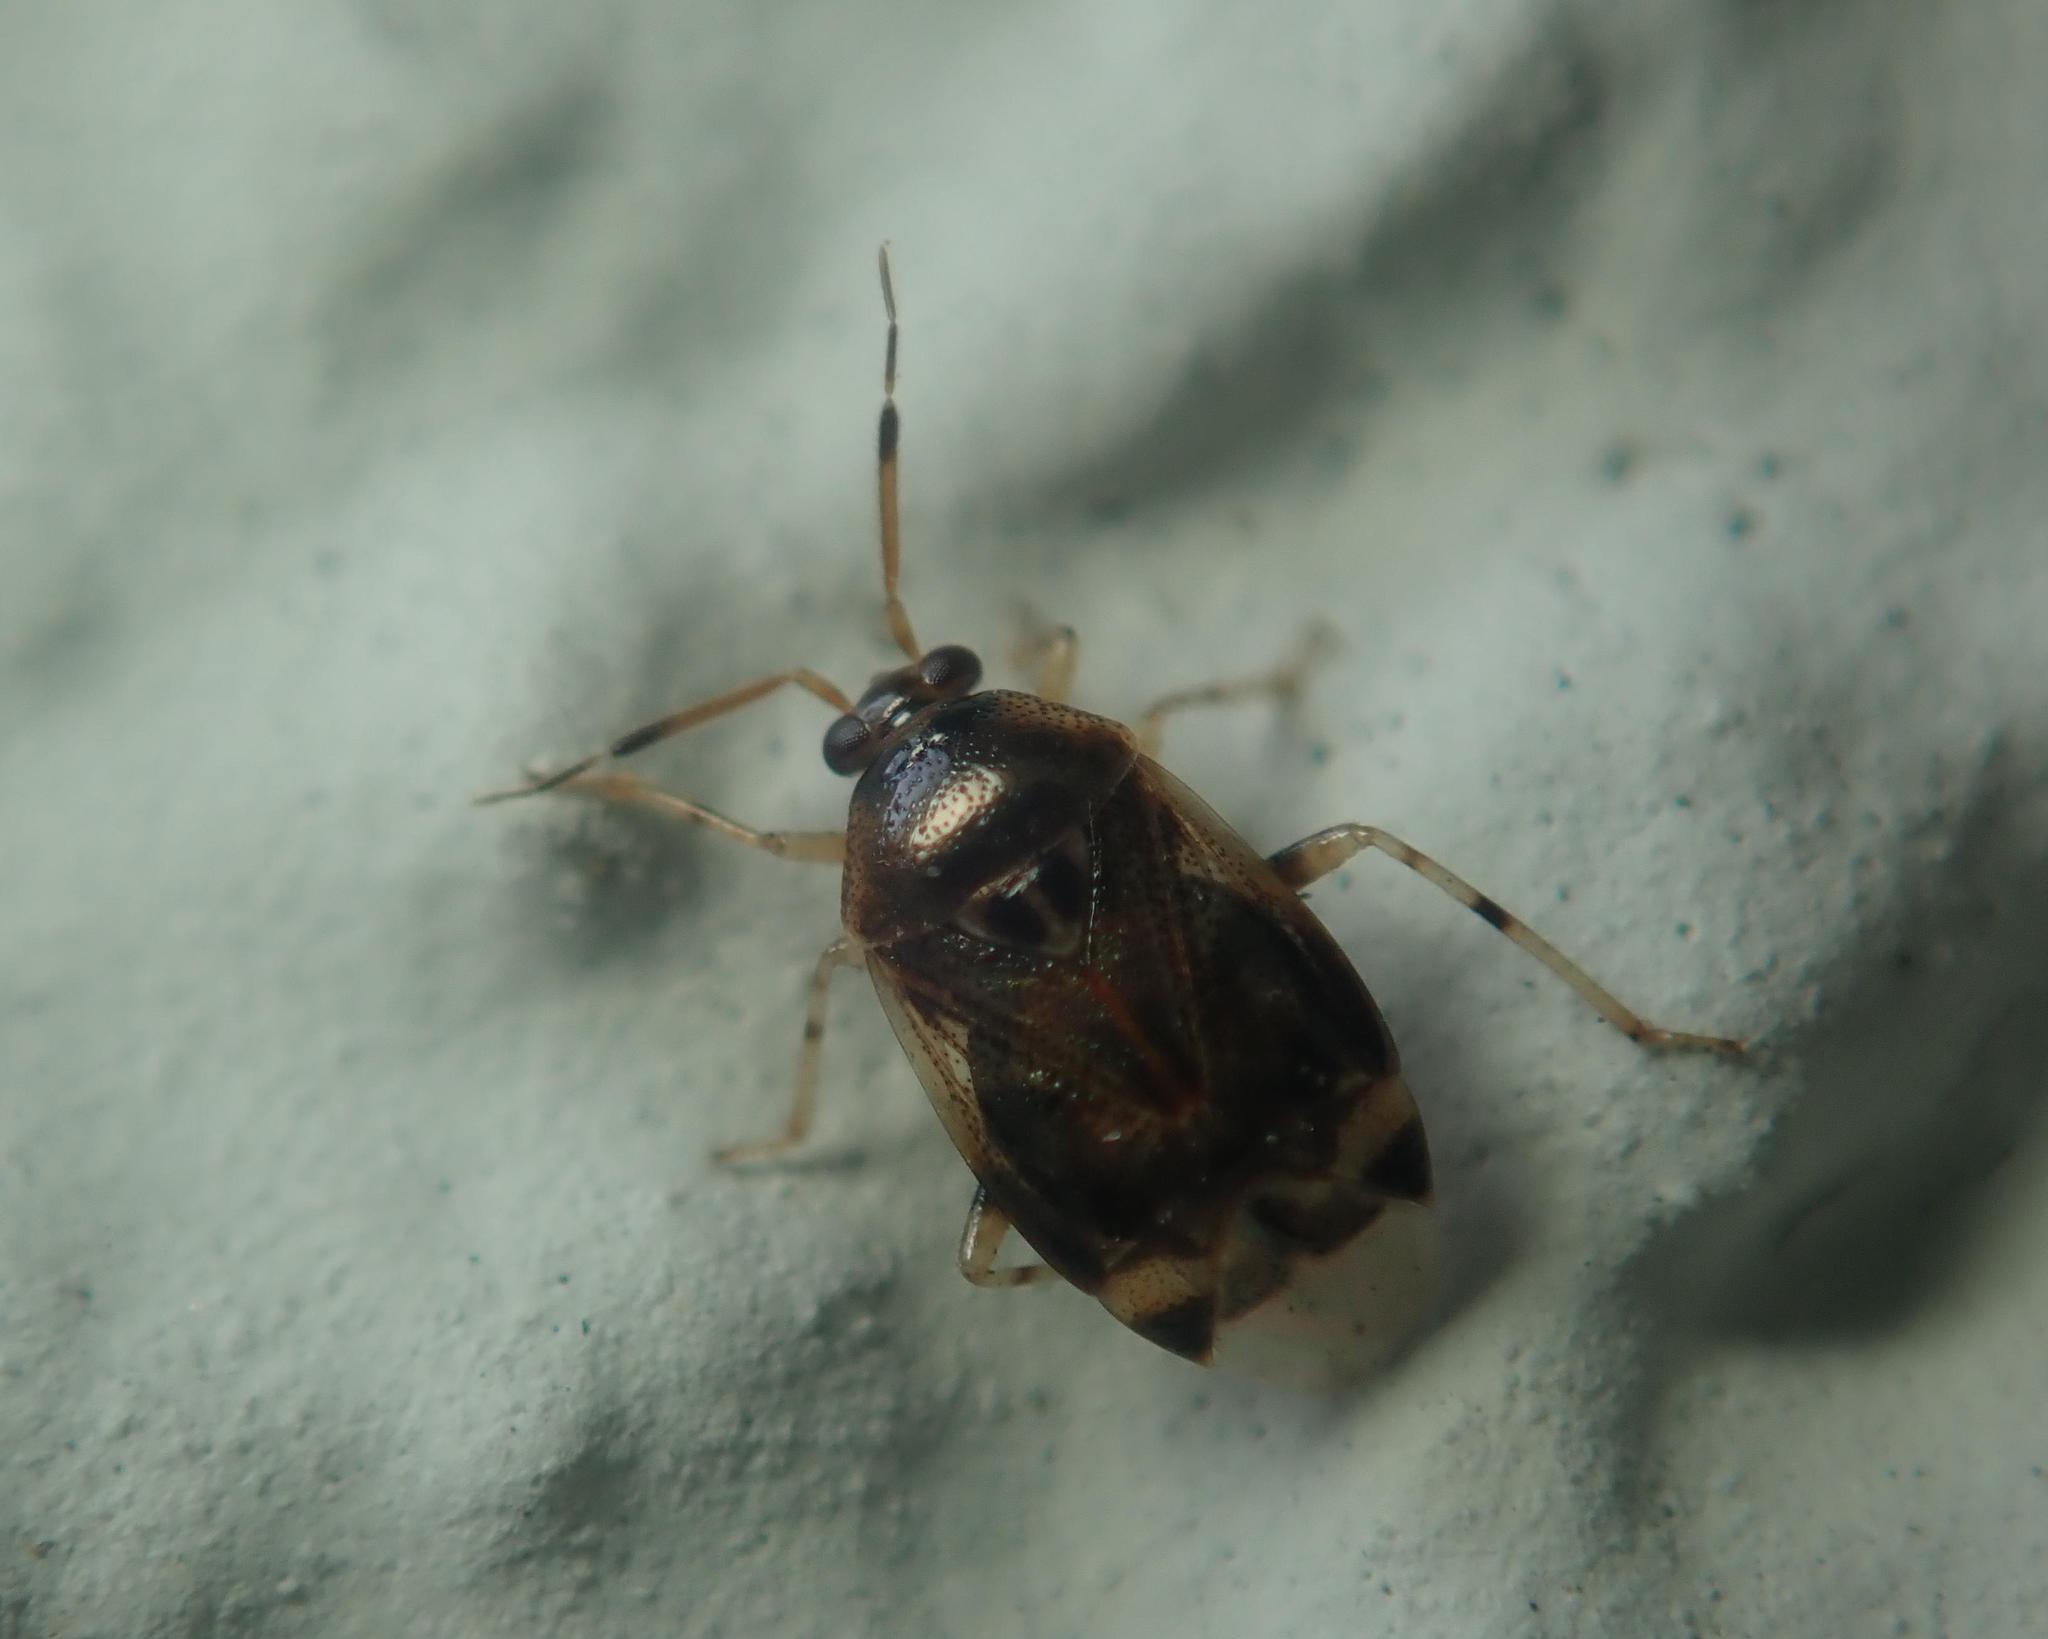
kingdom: Animalia
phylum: Arthropoda
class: Insecta
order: Hemiptera
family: Miridae
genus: Deraeocoris
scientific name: Deraeocoris lutescens
